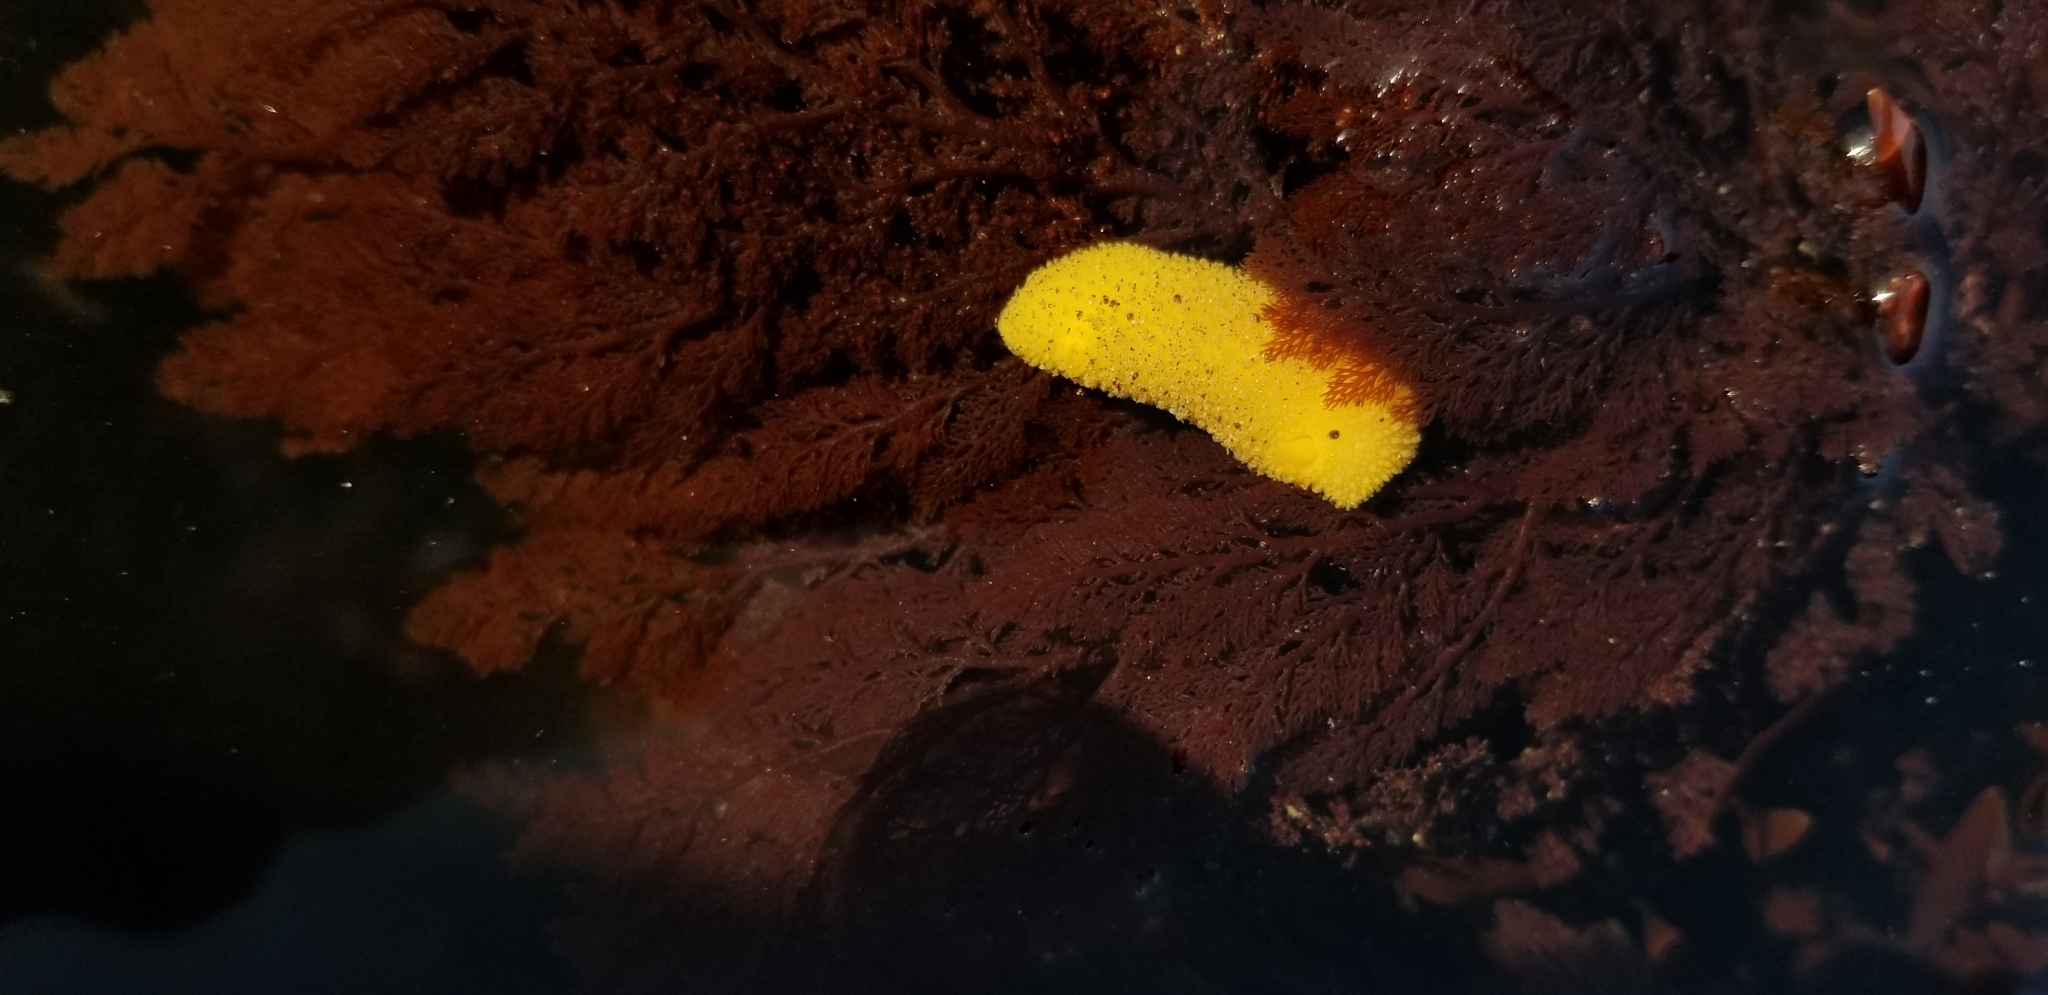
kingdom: Animalia
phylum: Mollusca
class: Gastropoda
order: Nudibranchia
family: Dorididae
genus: Doris
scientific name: Doris montereyensis
